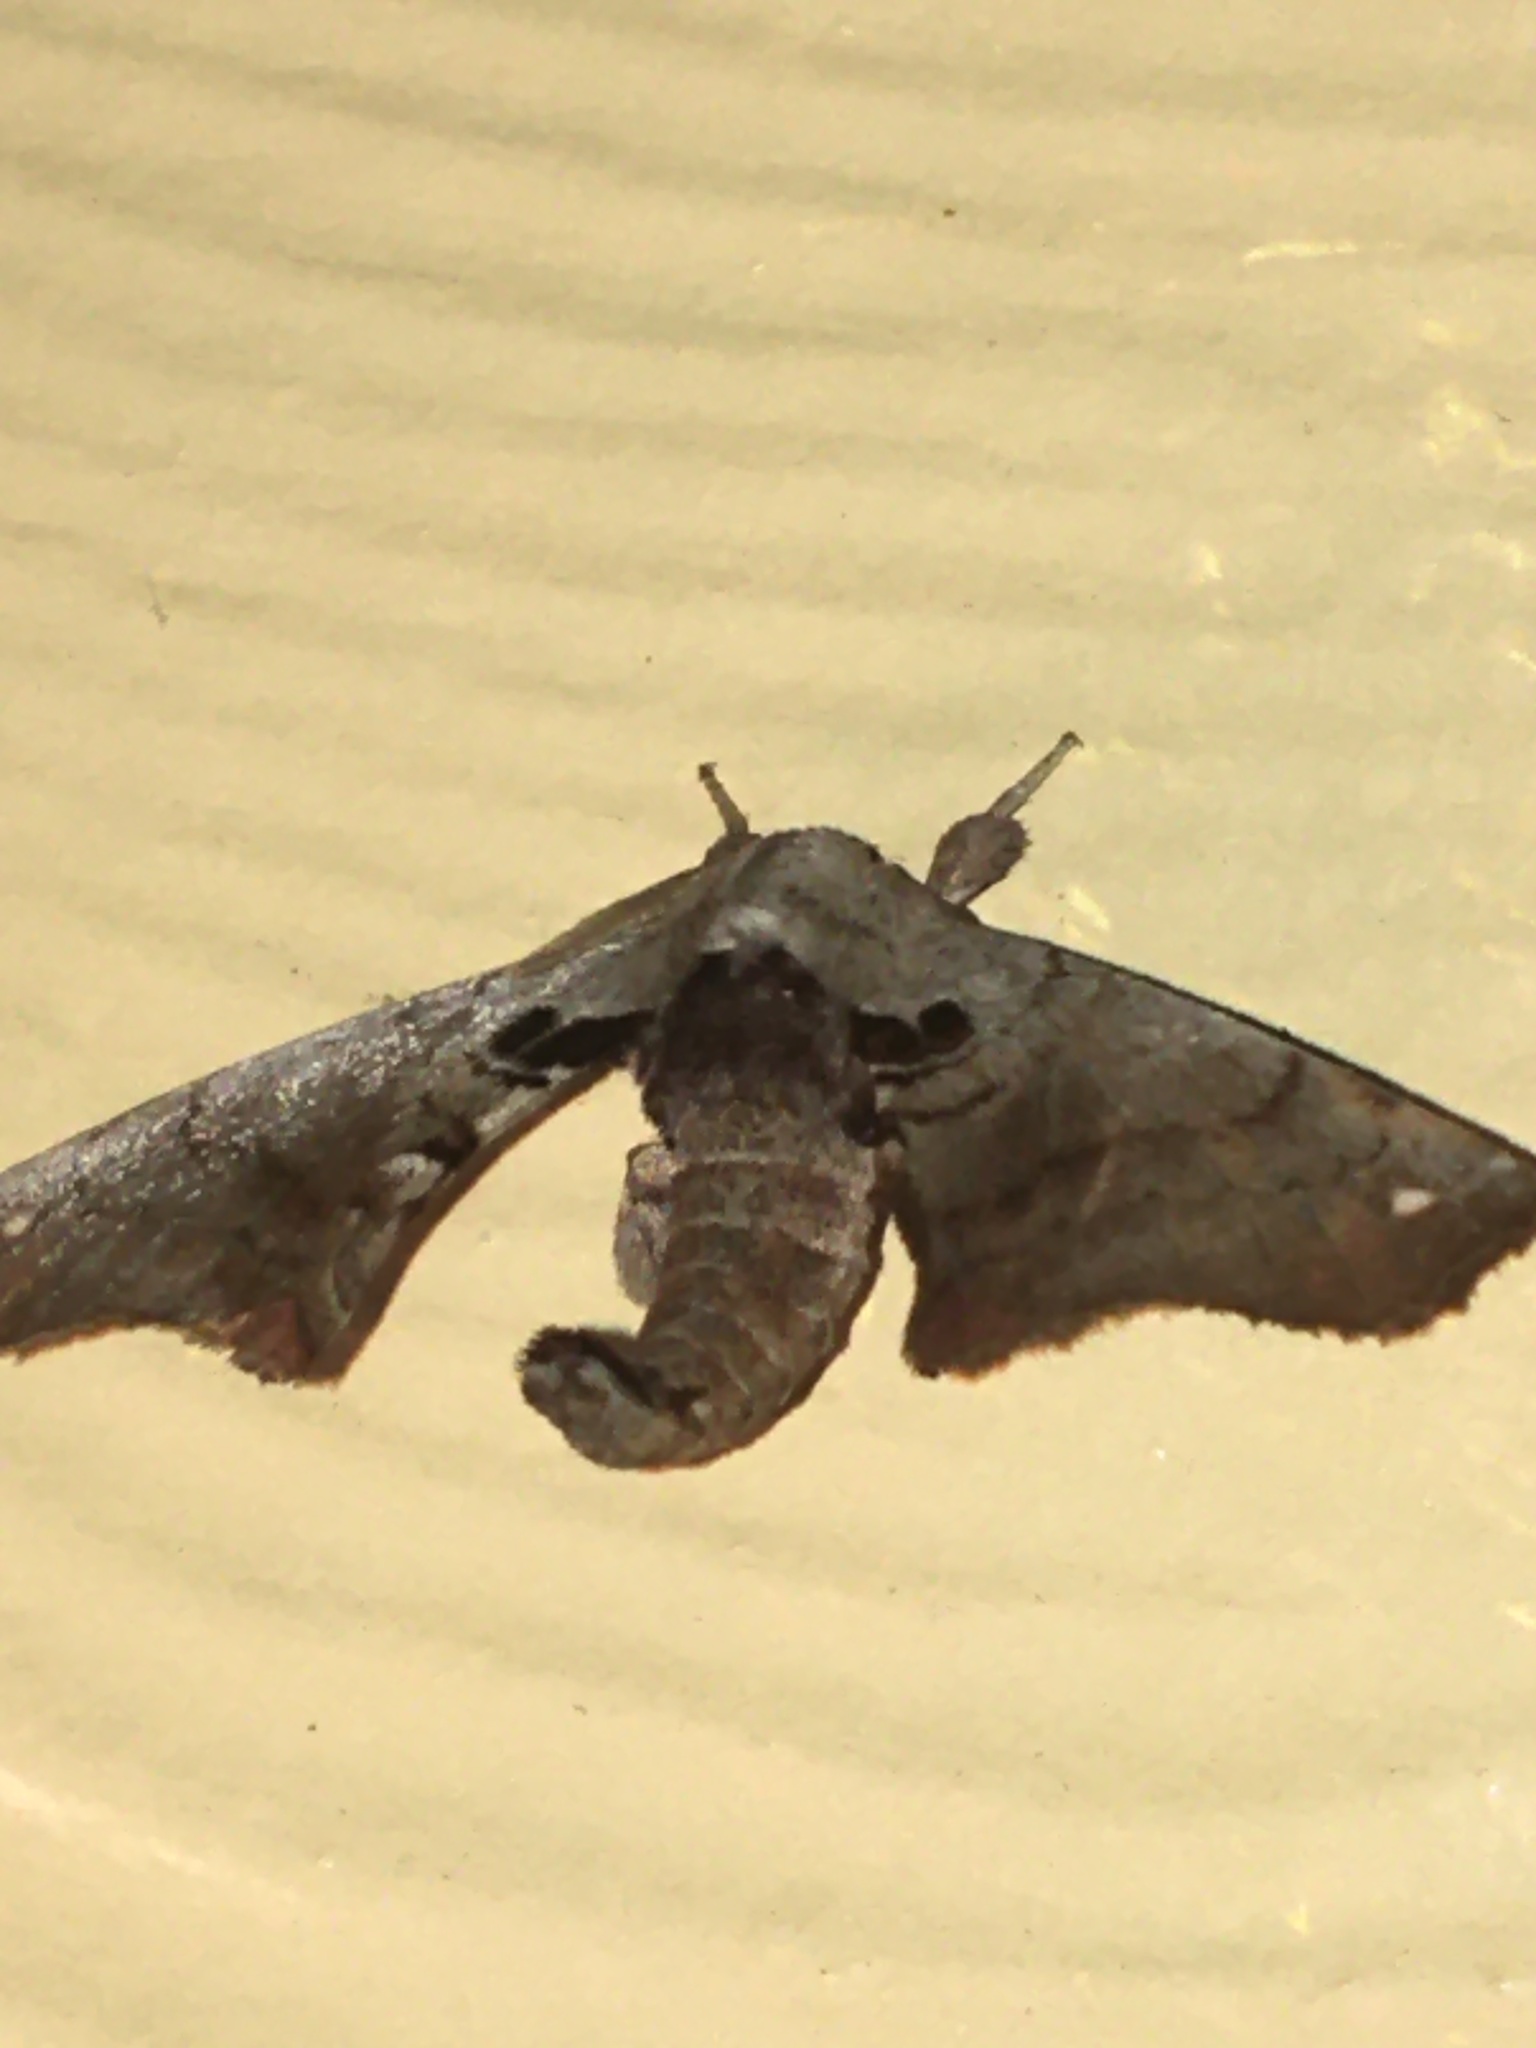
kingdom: Animalia
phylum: Arthropoda
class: Insecta
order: Lepidoptera
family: Apatelodidae
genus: Hygrochroa
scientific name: Hygrochroa Apatelodes torrefacta
